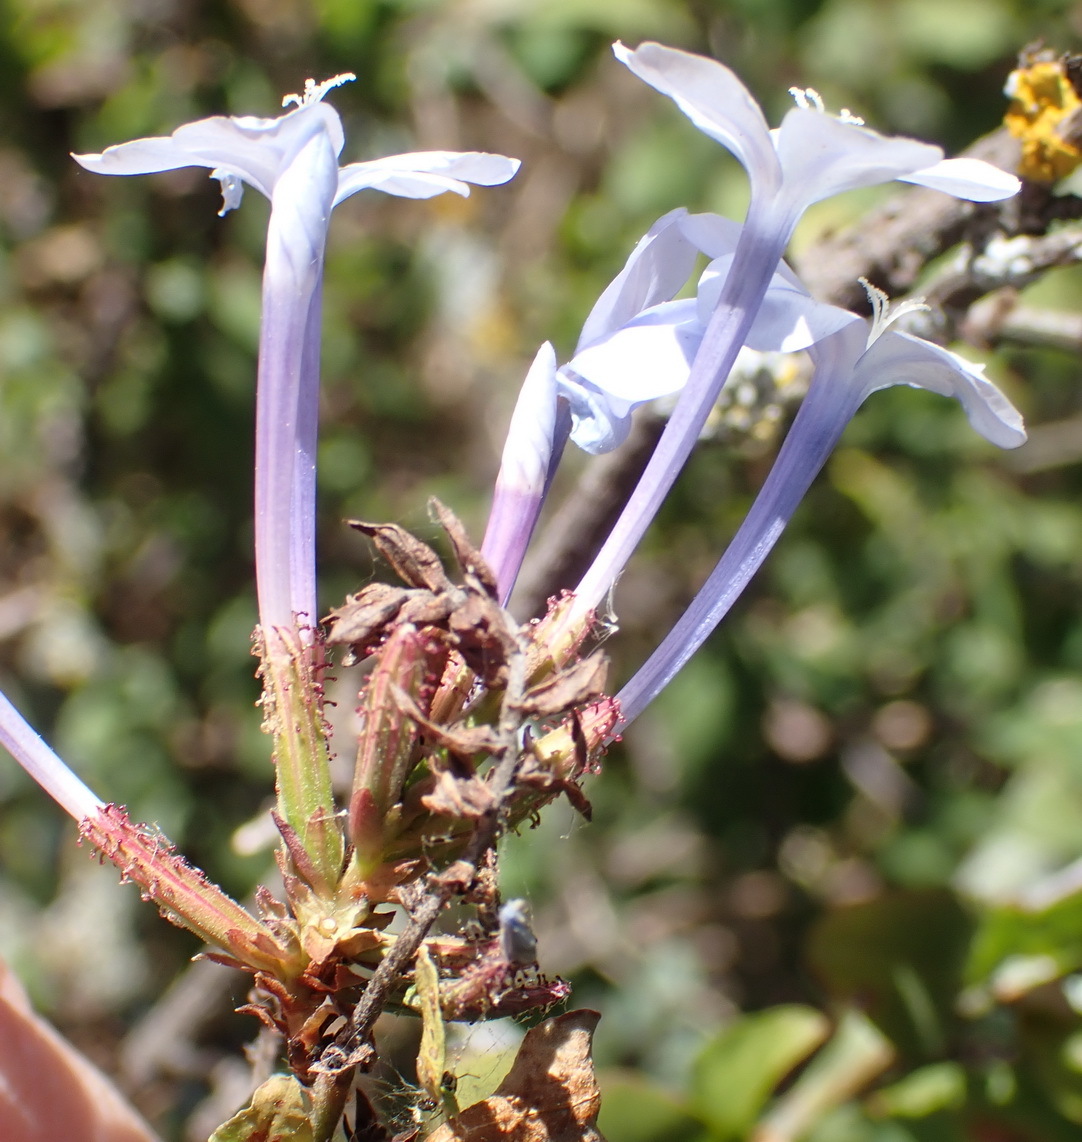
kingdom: Plantae
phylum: Tracheophyta
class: Magnoliopsida
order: Caryophyllales
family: Plumbaginaceae
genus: Plumbago
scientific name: Plumbago auriculata
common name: Cape leadwort
